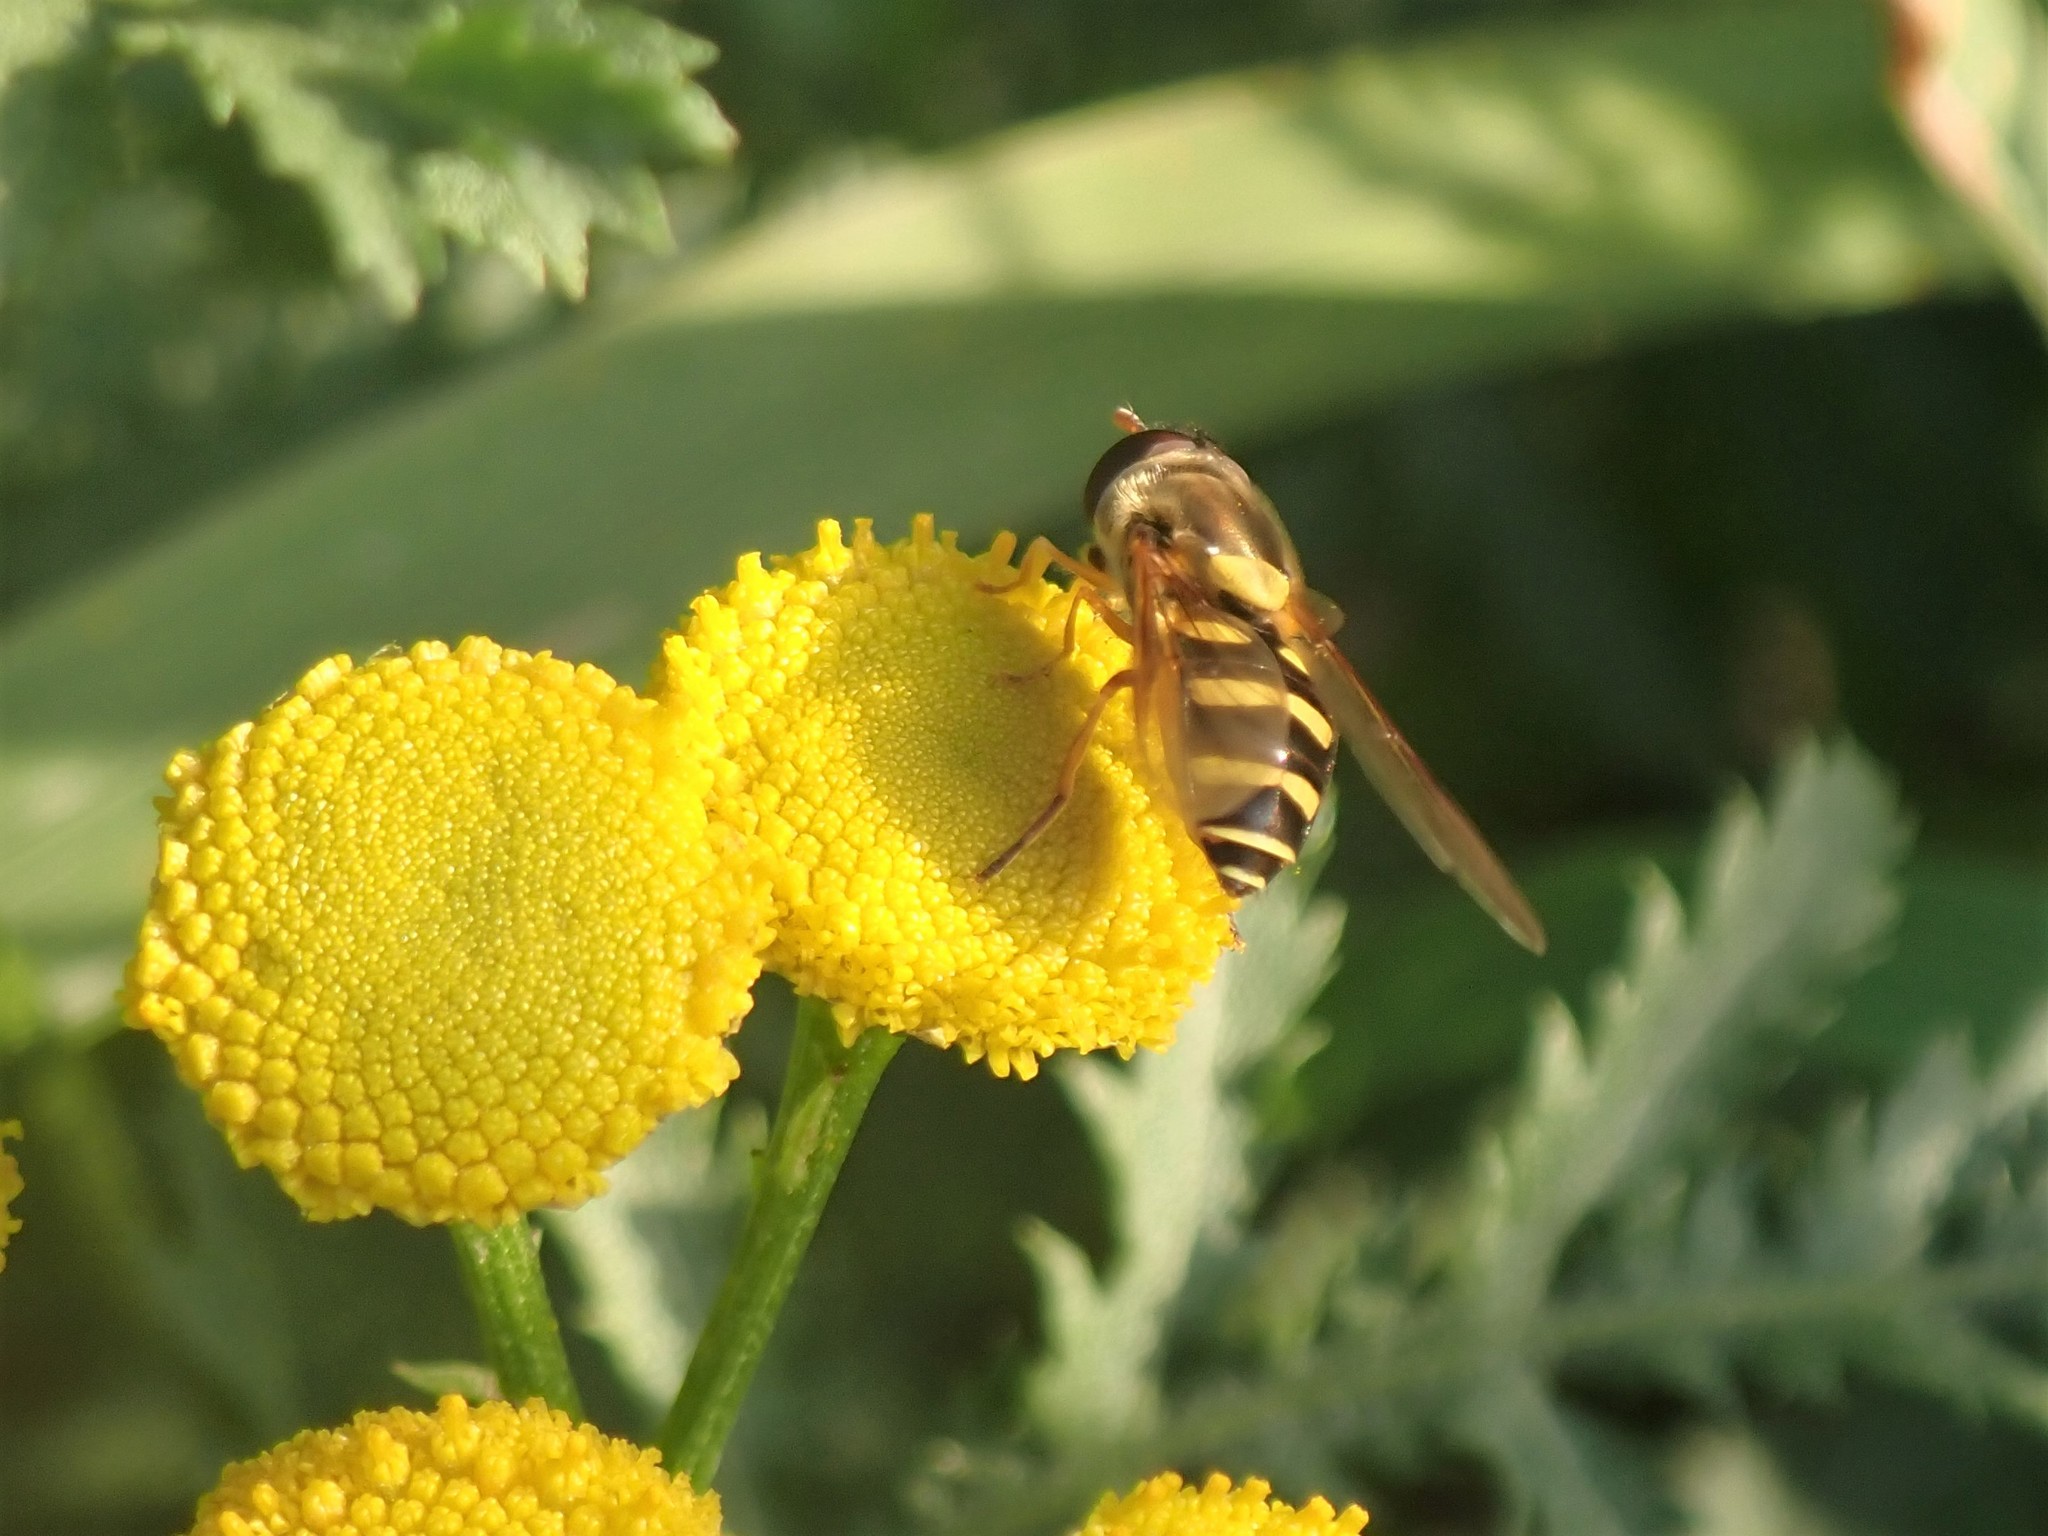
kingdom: Animalia
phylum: Arthropoda
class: Insecta
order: Diptera
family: Syrphidae
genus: Syrphus
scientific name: Syrphus opinator
